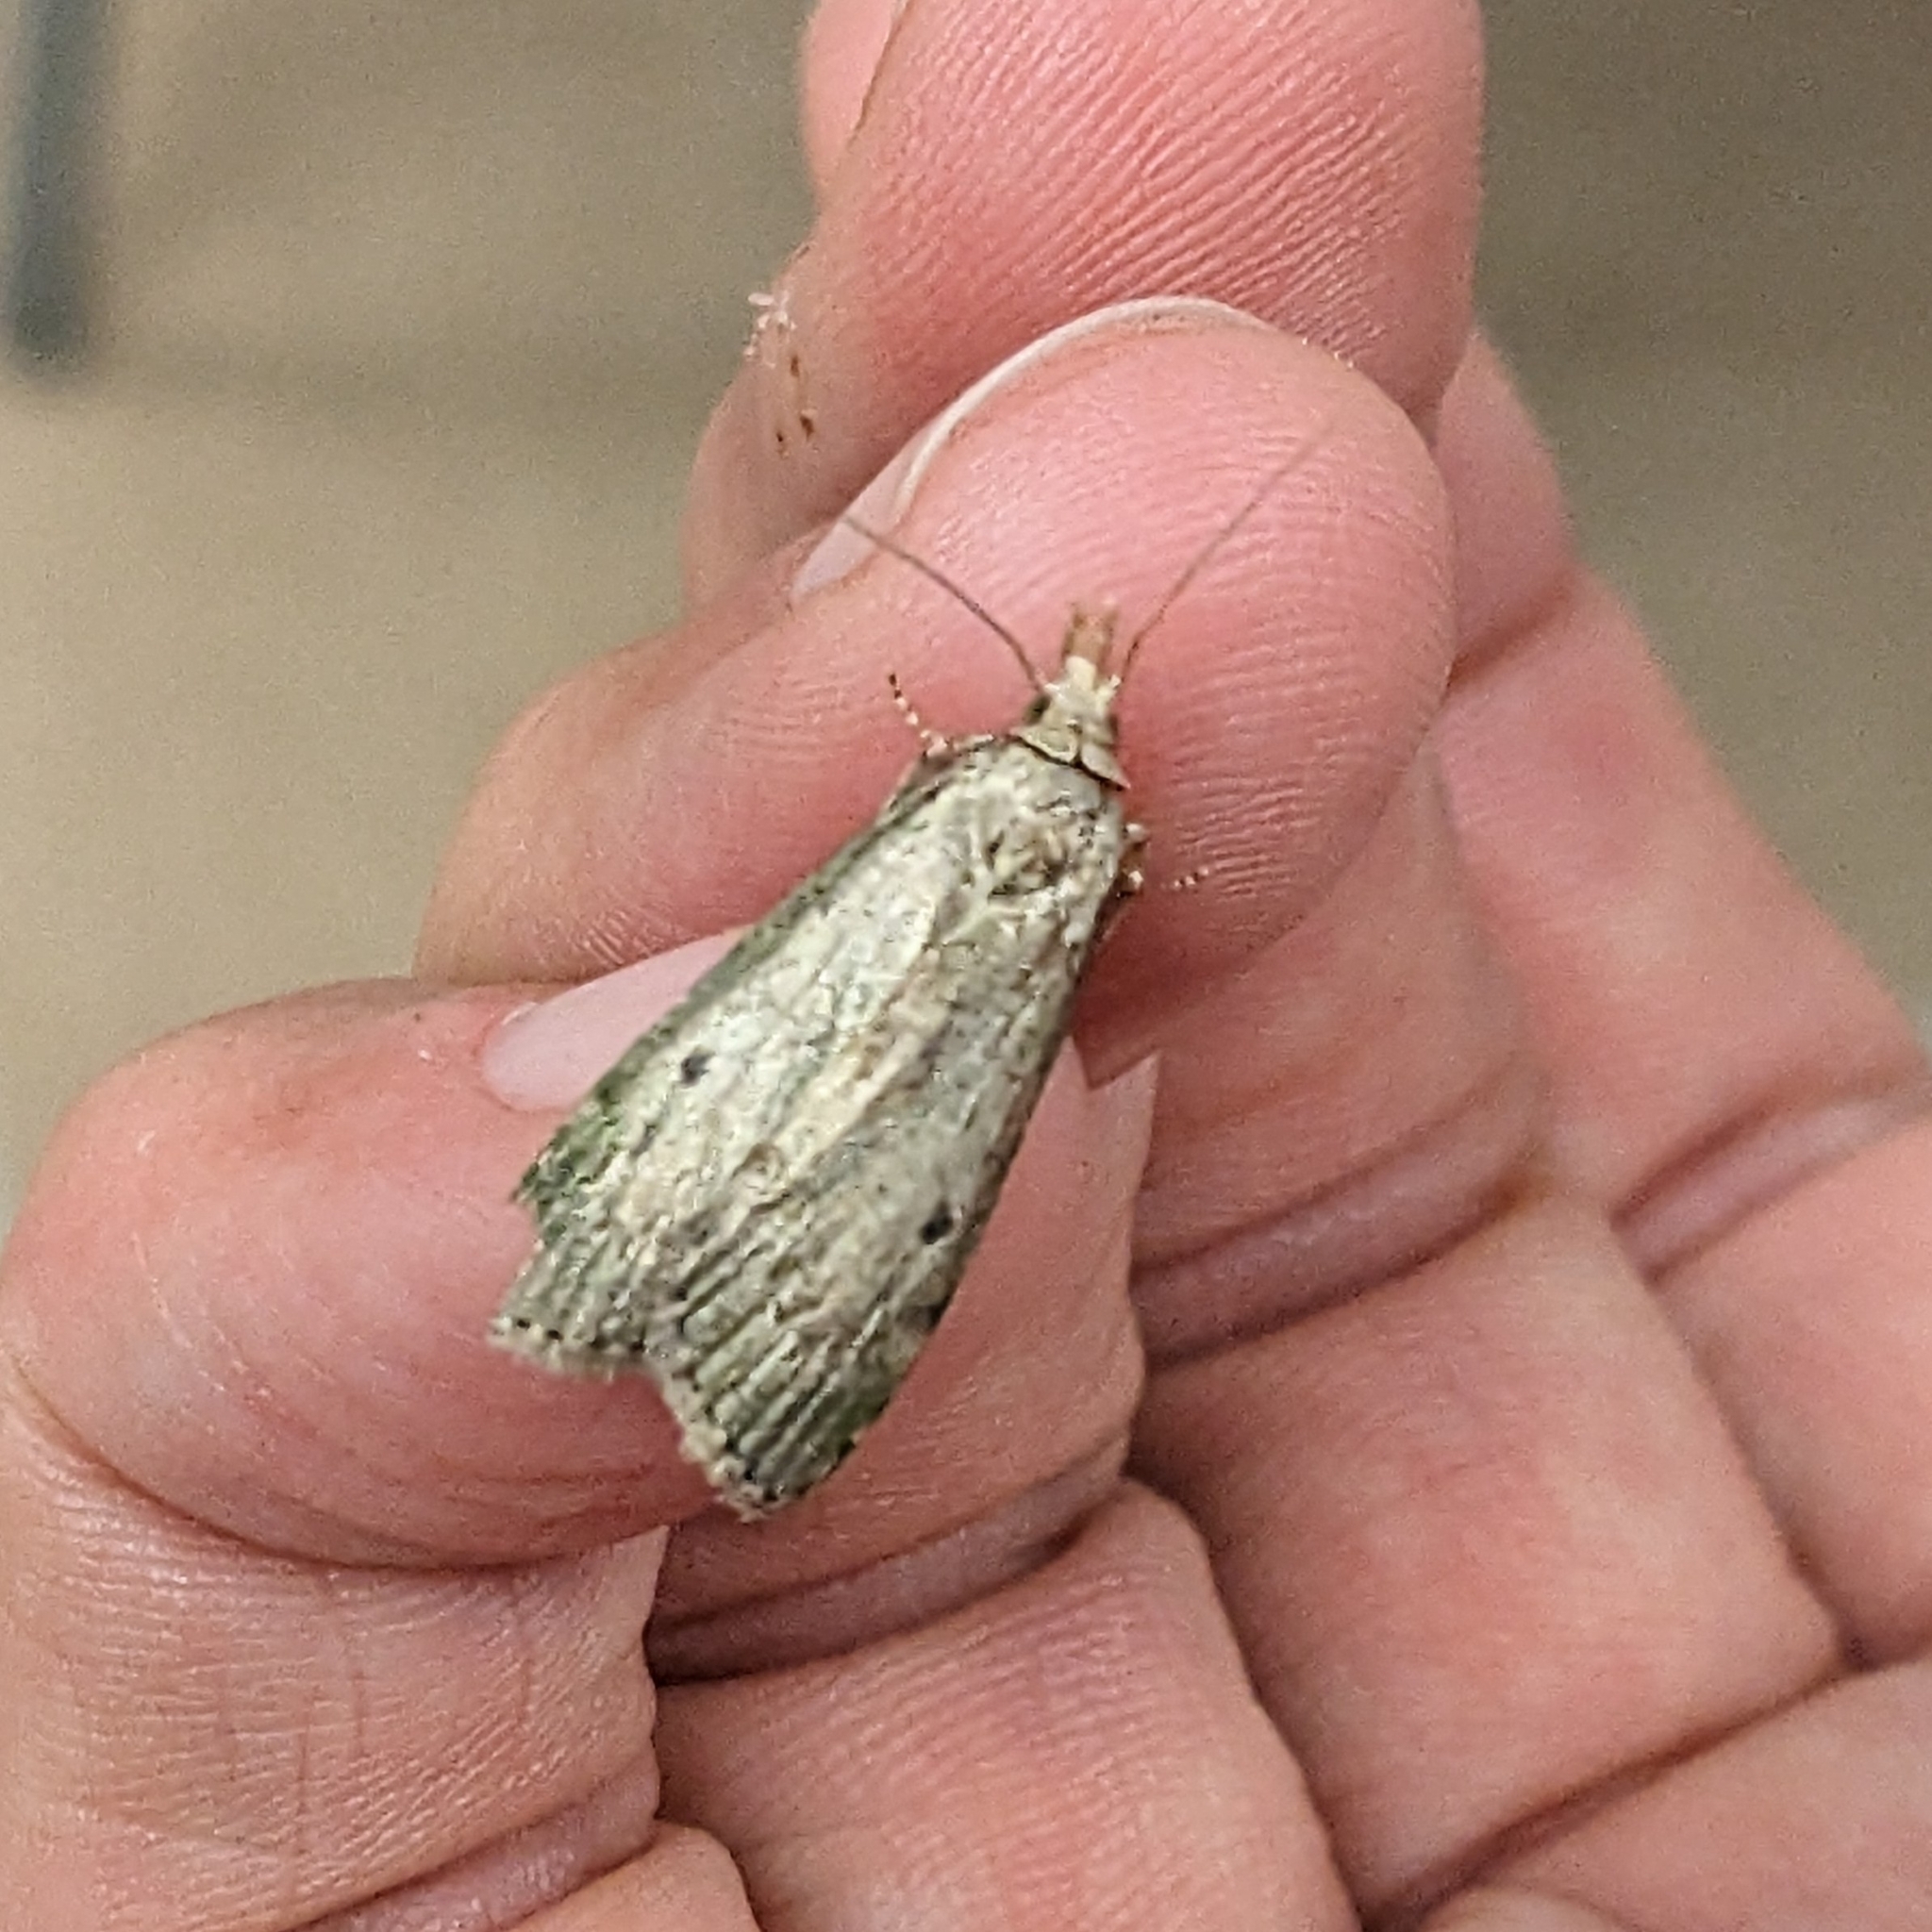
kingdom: Animalia
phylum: Arthropoda
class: Insecta
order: Lepidoptera
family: Pyralidae
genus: Aphomia
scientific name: Aphomia sociella
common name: Bee moth
